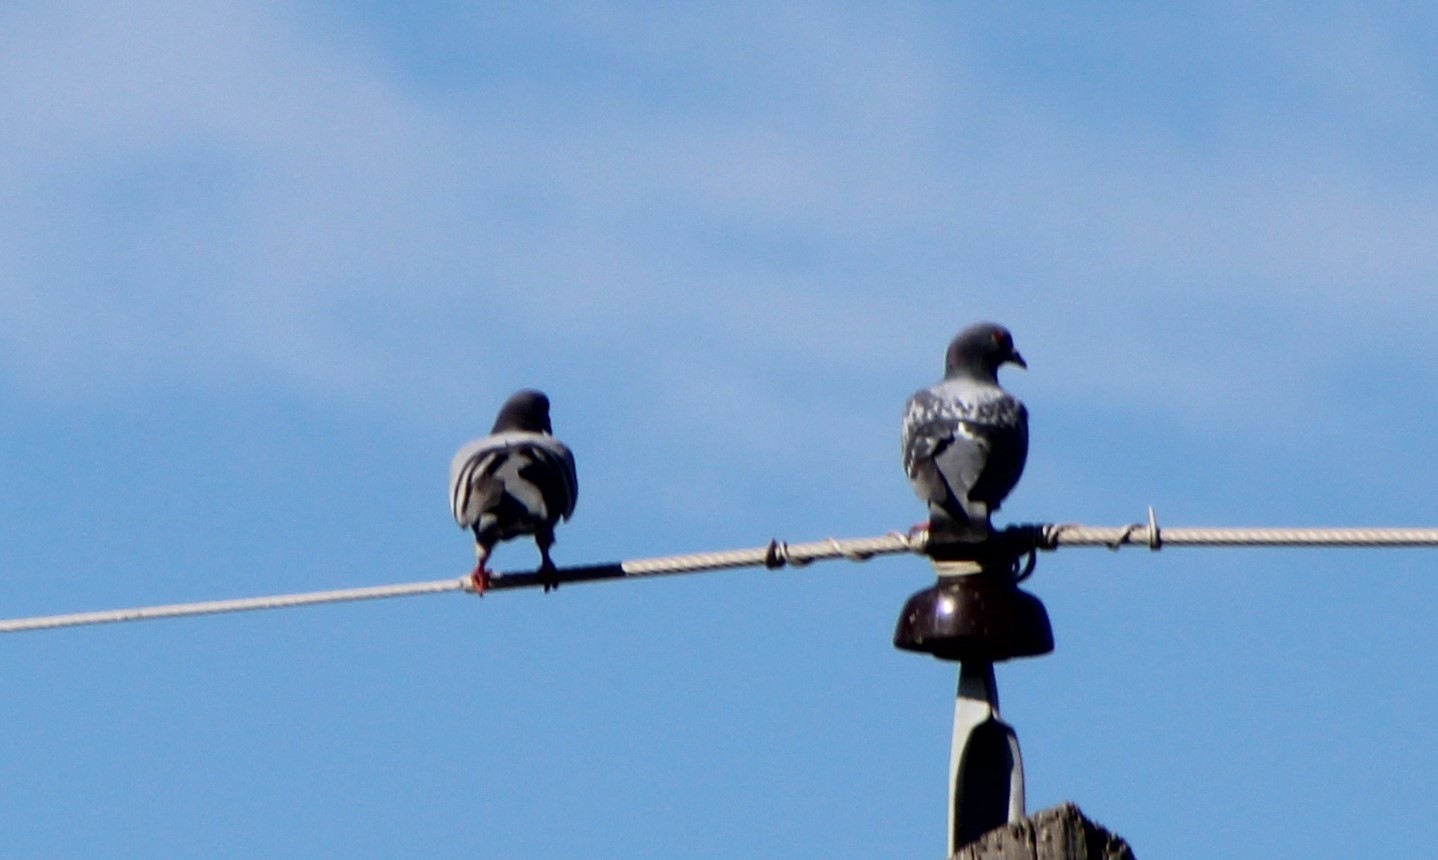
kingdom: Animalia
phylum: Chordata
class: Aves
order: Columbiformes
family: Columbidae
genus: Columba
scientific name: Columba livia
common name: Rock pigeon
